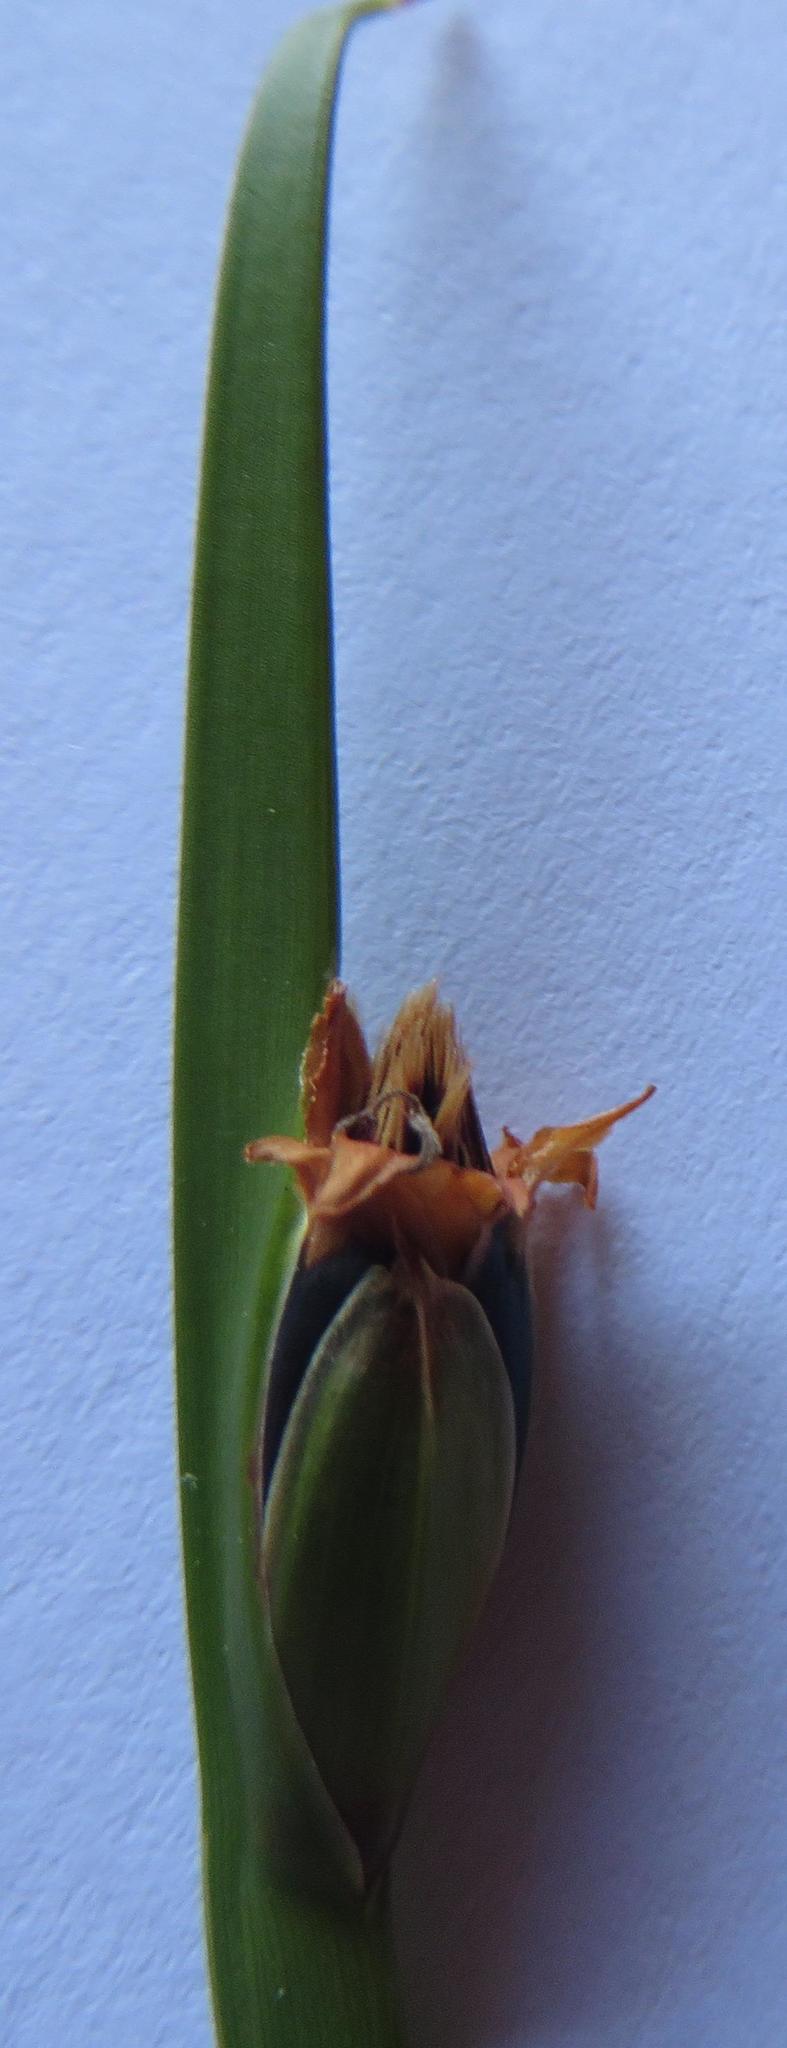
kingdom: Plantae
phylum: Tracheophyta
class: Liliopsida
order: Poales
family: Cyperaceae
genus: Chrysitrix
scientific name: Chrysitrix capensis
